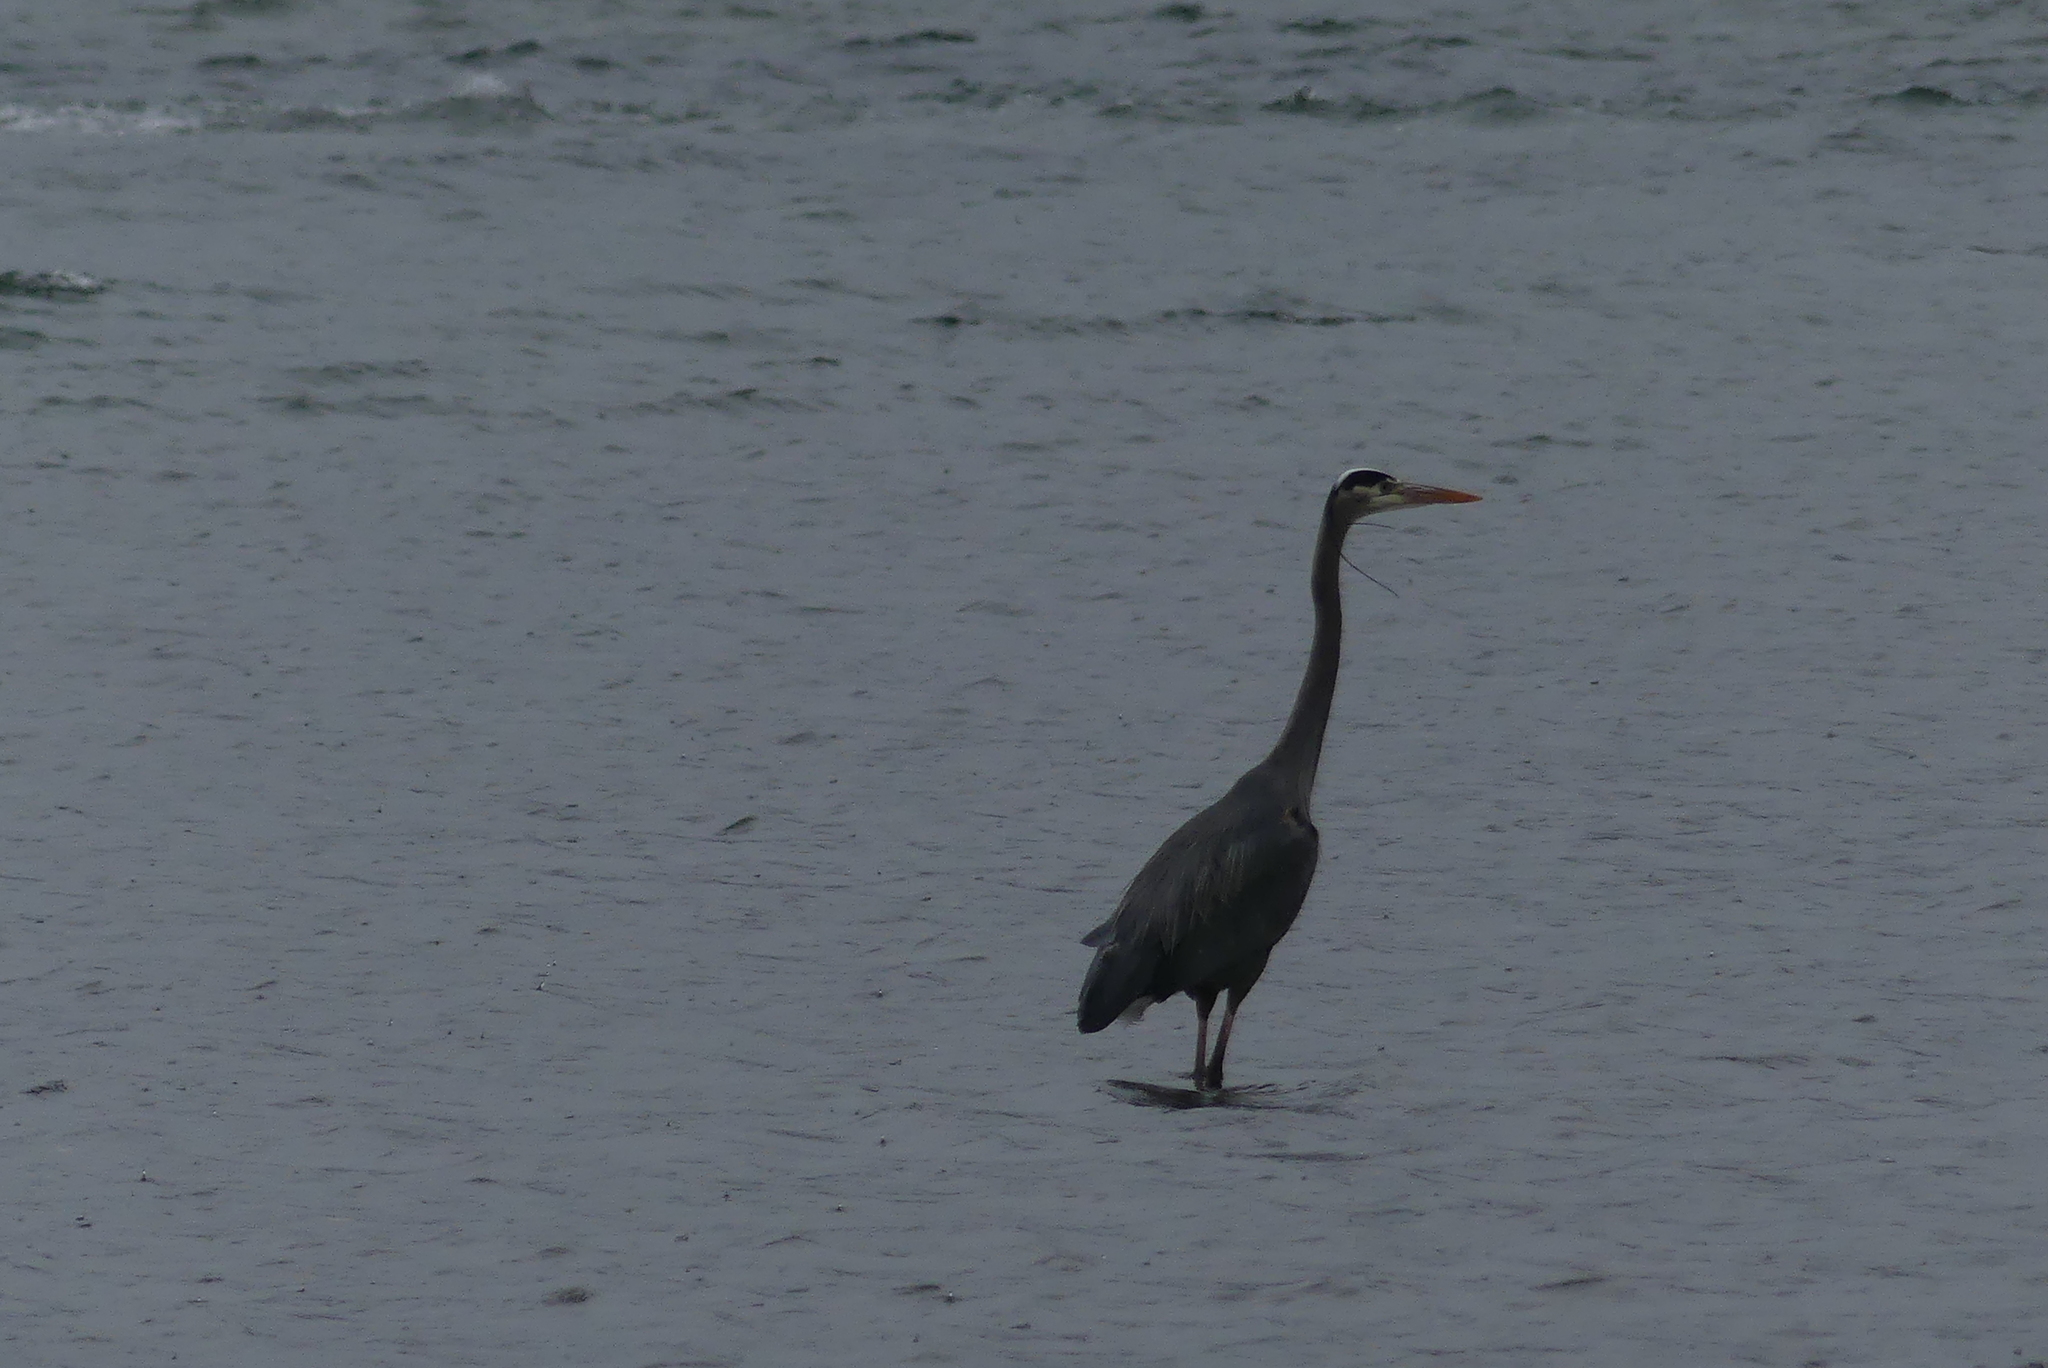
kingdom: Animalia
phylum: Chordata
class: Aves
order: Pelecaniformes
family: Ardeidae
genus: Ardea
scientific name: Ardea herodias
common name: Great blue heron
